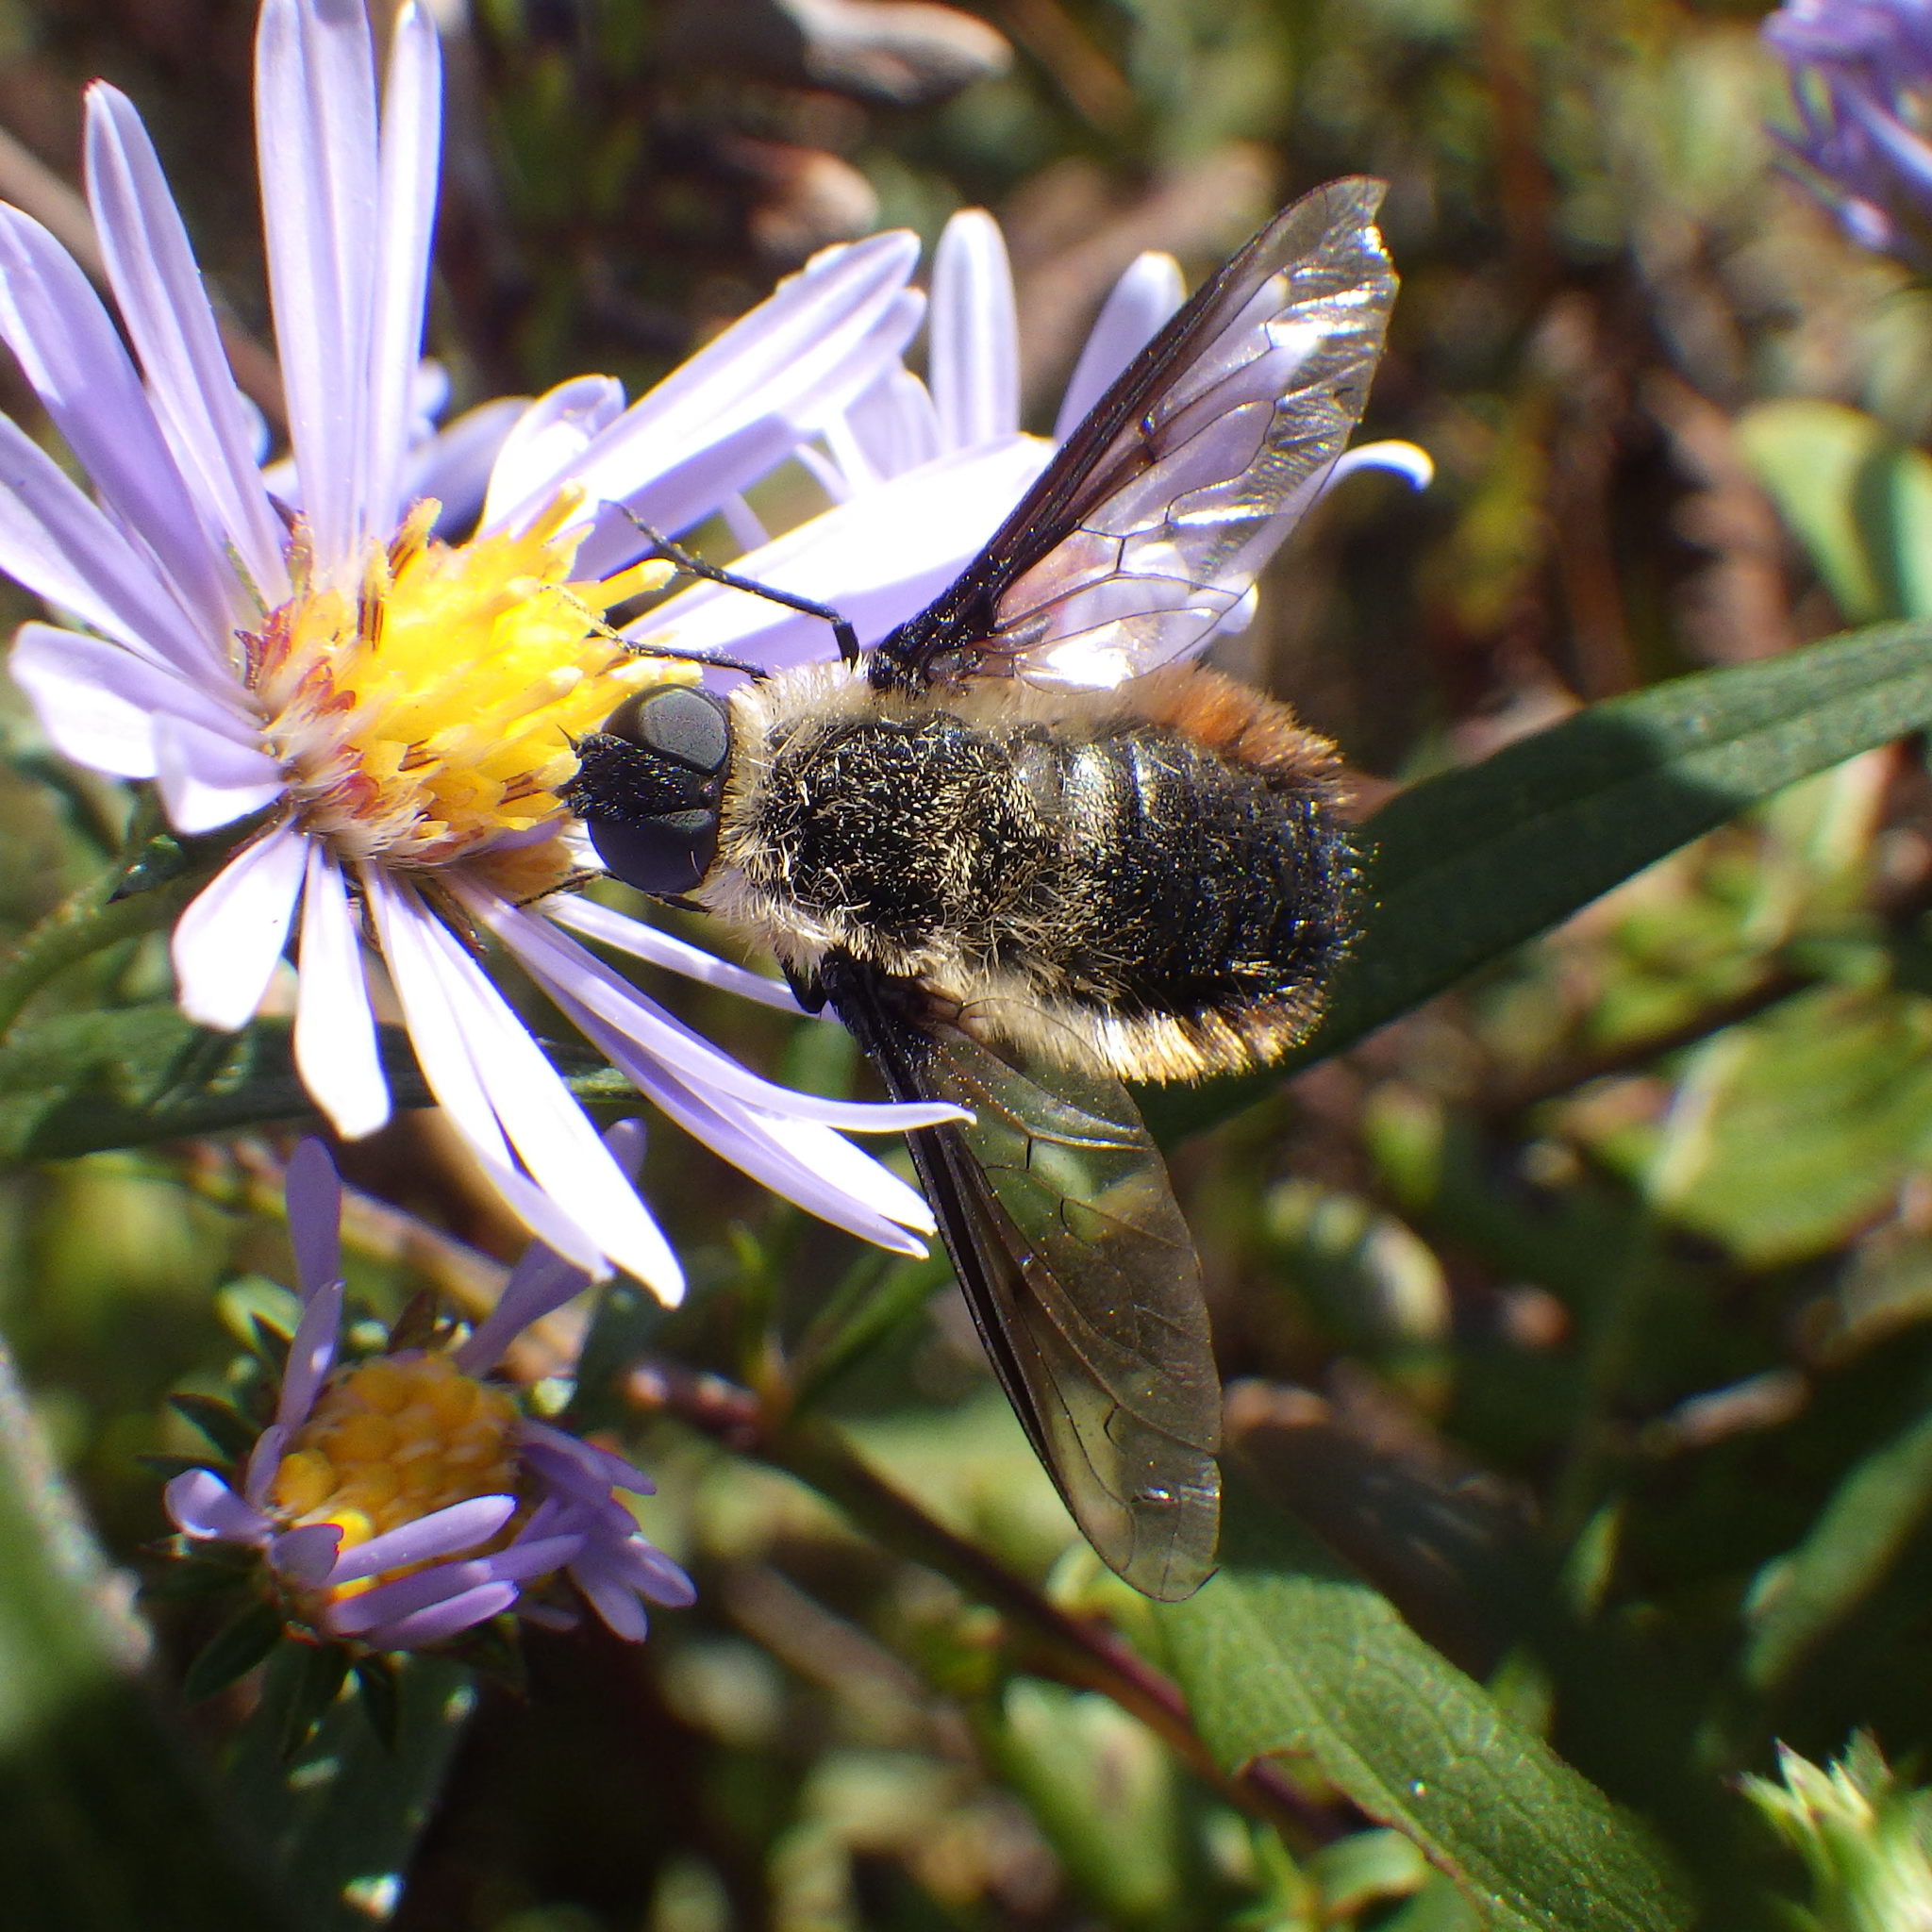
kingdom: Animalia
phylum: Arthropoda
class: Insecta
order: Diptera
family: Bombyliidae
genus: Villa
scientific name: Villa fulviana
